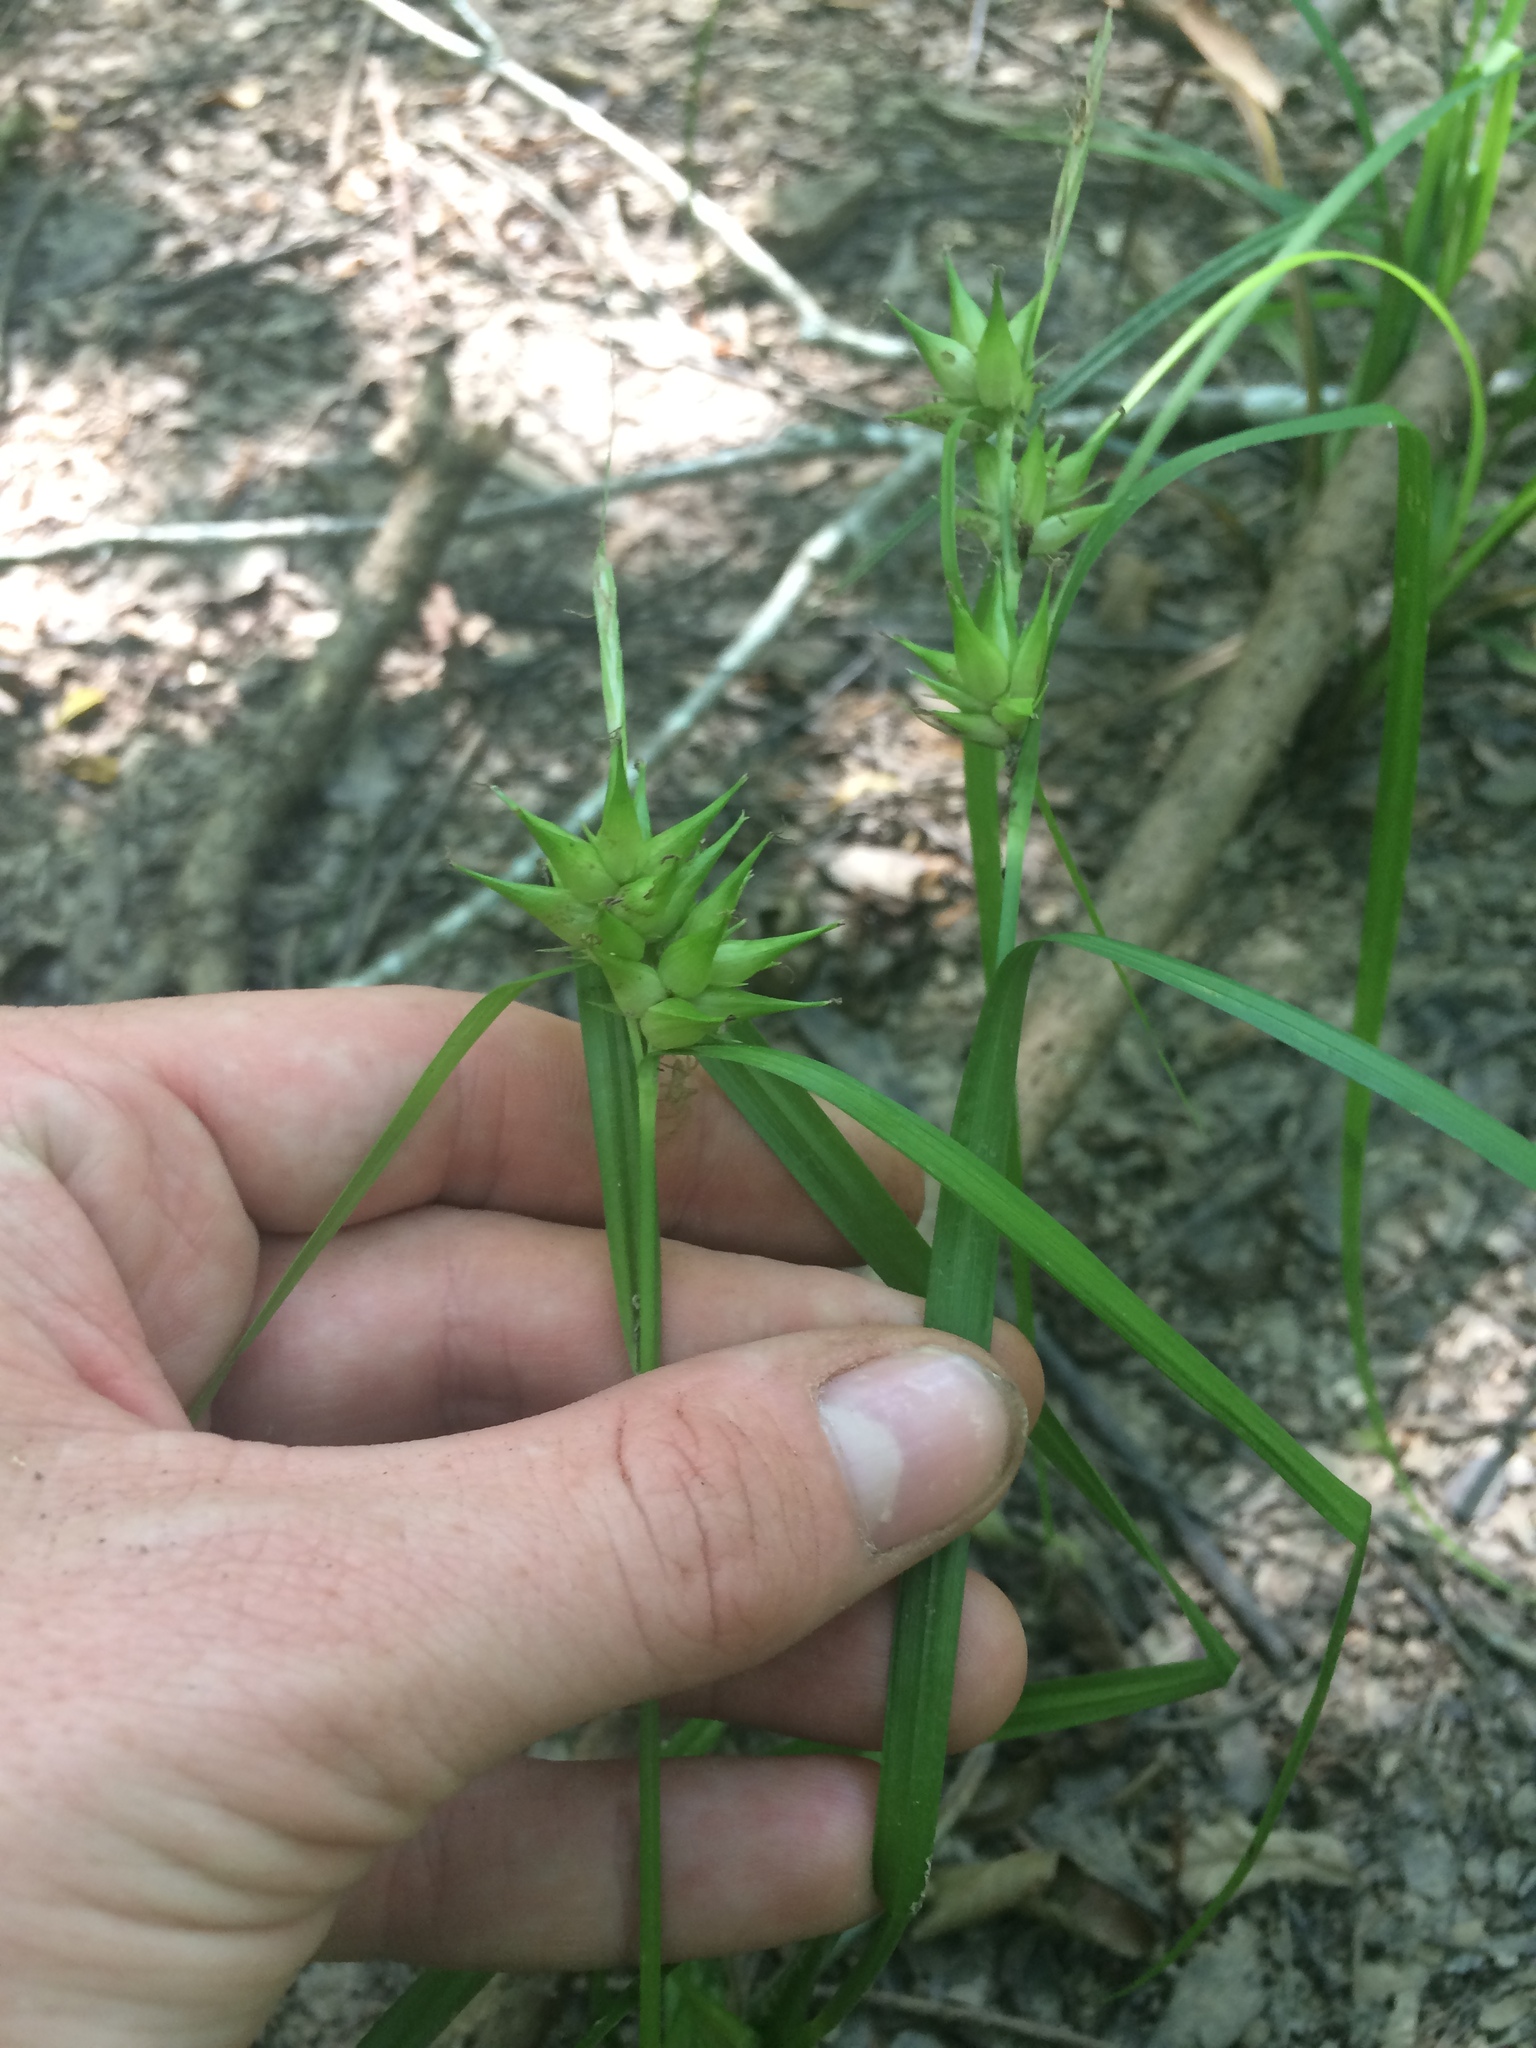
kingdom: Plantae
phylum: Tracheophyta
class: Liliopsida
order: Poales
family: Cyperaceae
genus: Carex
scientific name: Carex intumescens
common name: Greater bladder sedge
